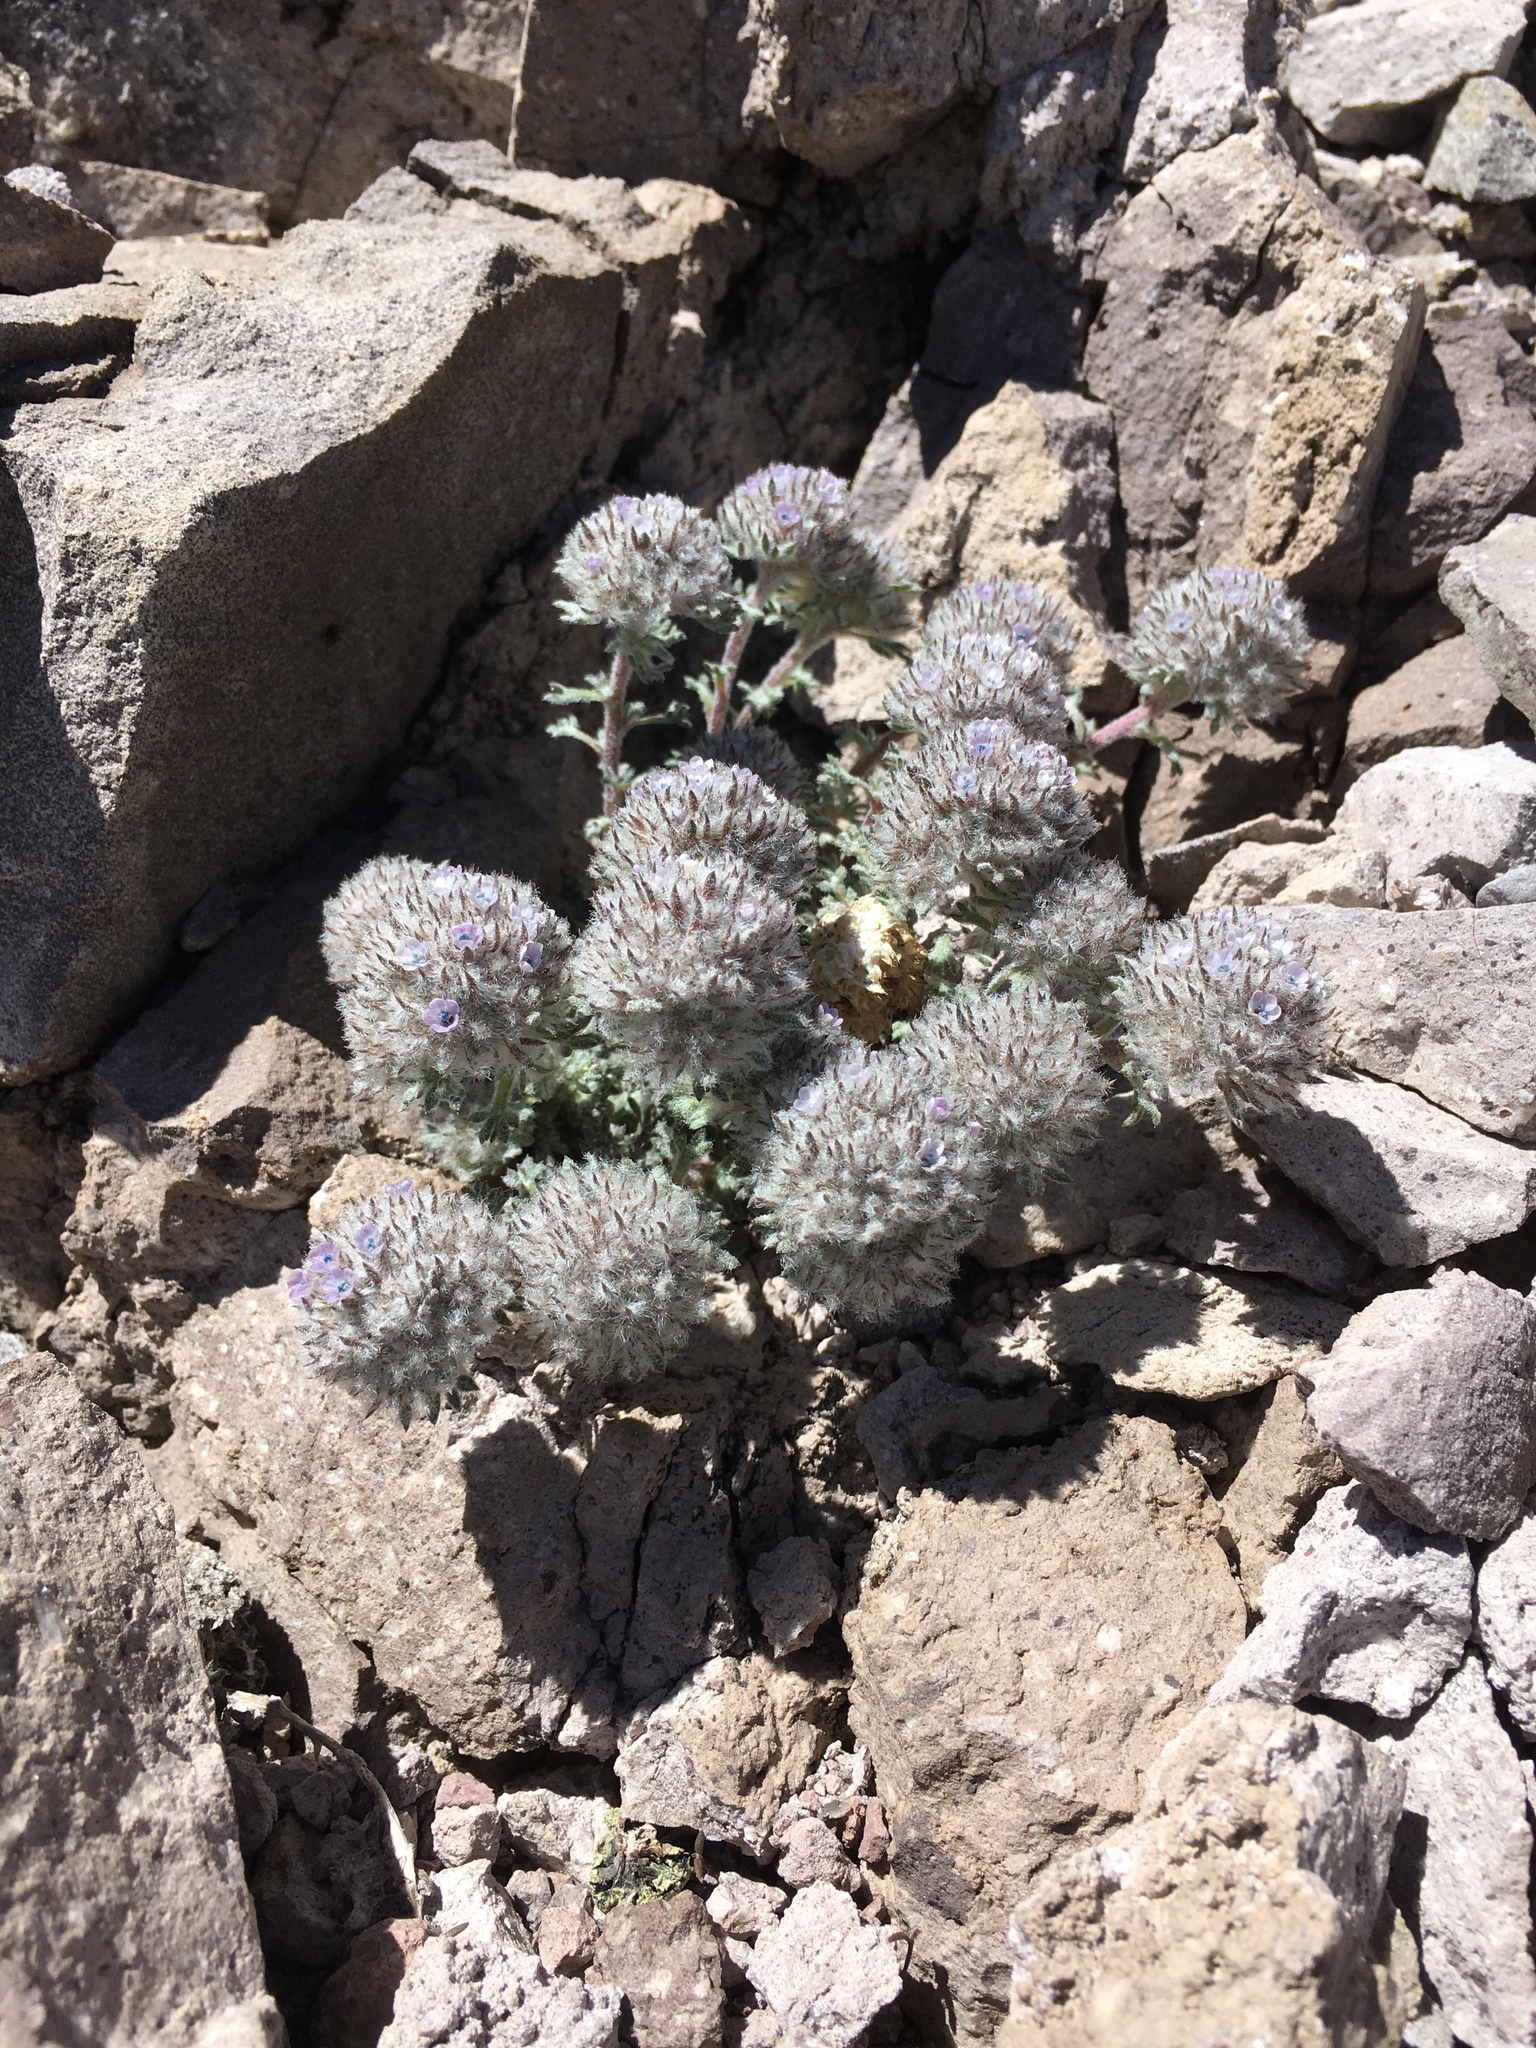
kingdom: Plantae
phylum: Tracheophyta
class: Magnoliopsida
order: Ericales
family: Polemoniaceae
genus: Ipomopsis
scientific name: Ipomopsis congesta
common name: Ball-head gilia
